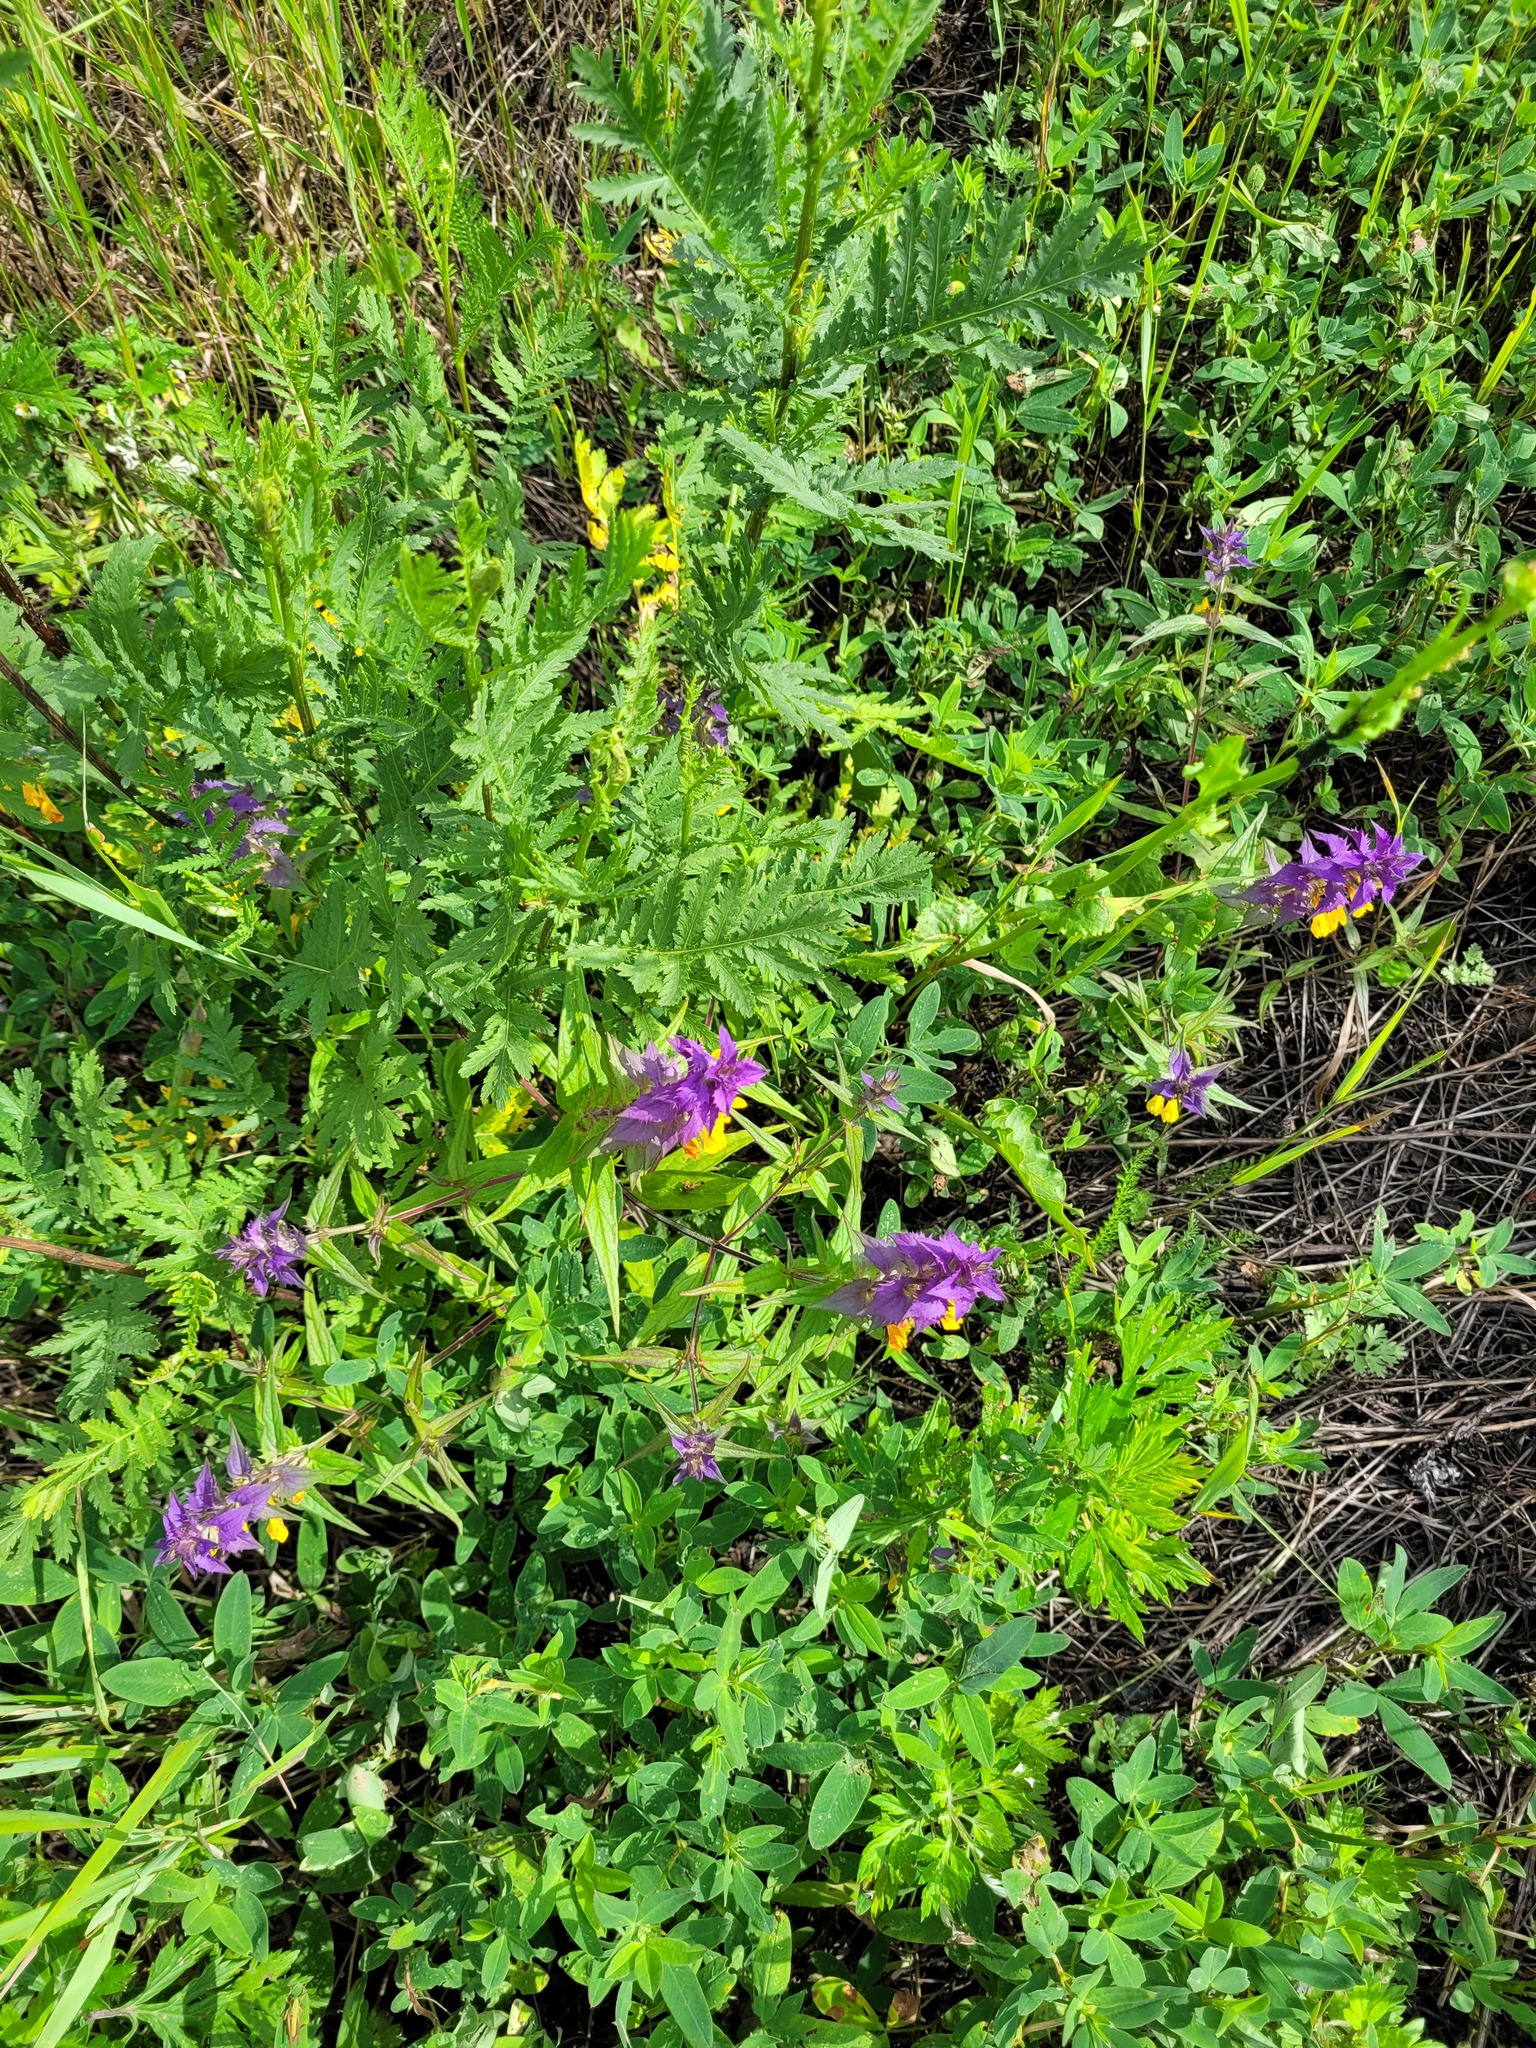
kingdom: Plantae
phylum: Tracheophyta
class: Magnoliopsida
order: Lamiales
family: Orobanchaceae
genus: Melampyrum
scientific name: Melampyrum nemorosum
